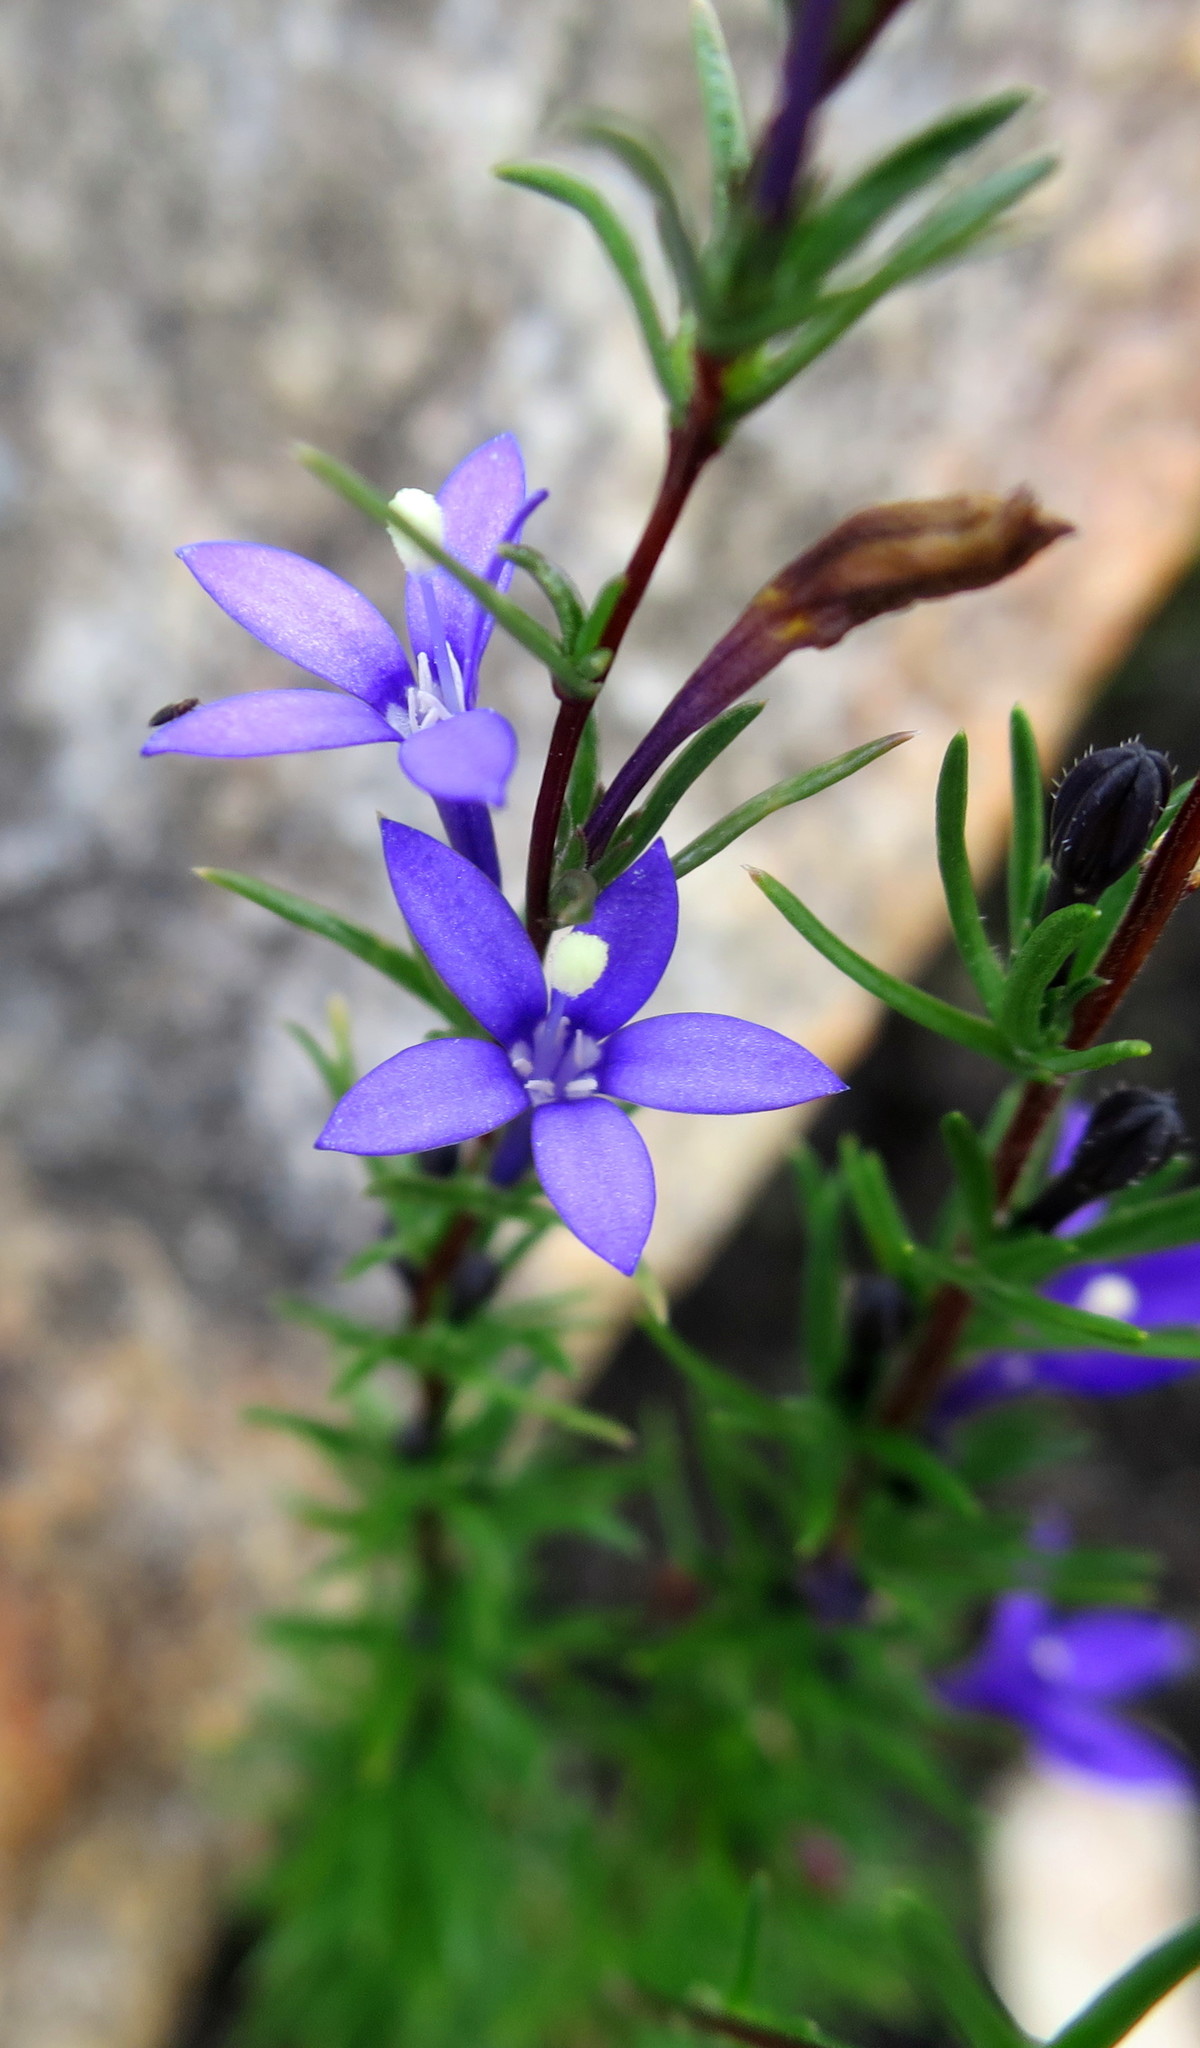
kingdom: Plantae
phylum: Tracheophyta
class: Magnoliopsida
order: Asterales
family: Campanulaceae
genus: Theilera
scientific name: Theilera guthriei
